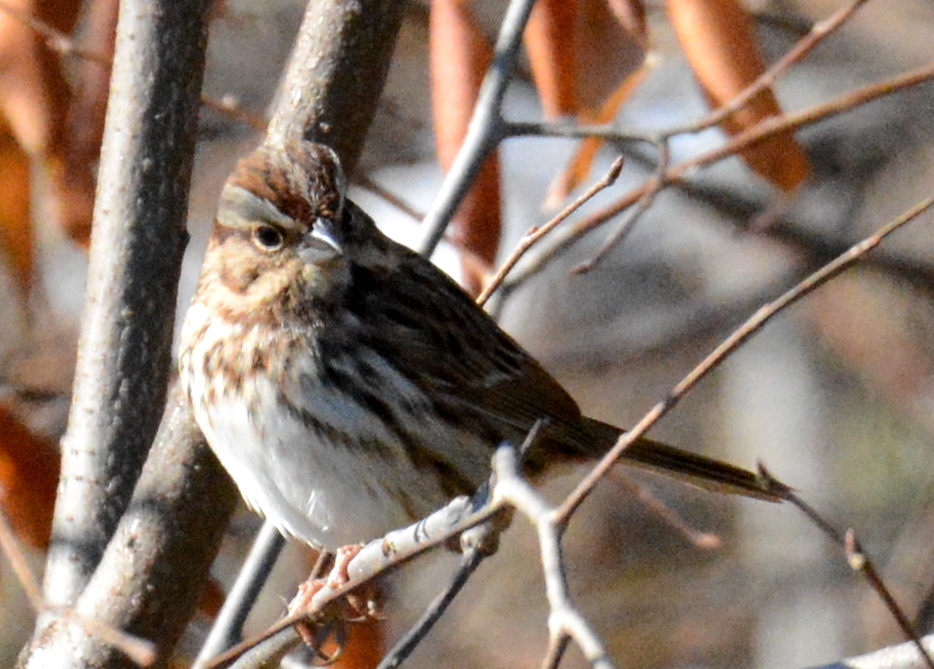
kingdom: Animalia
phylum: Chordata
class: Aves
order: Passeriformes
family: Passerellidae
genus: Melospiza
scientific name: Melospiza melodia
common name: Song sparrow
